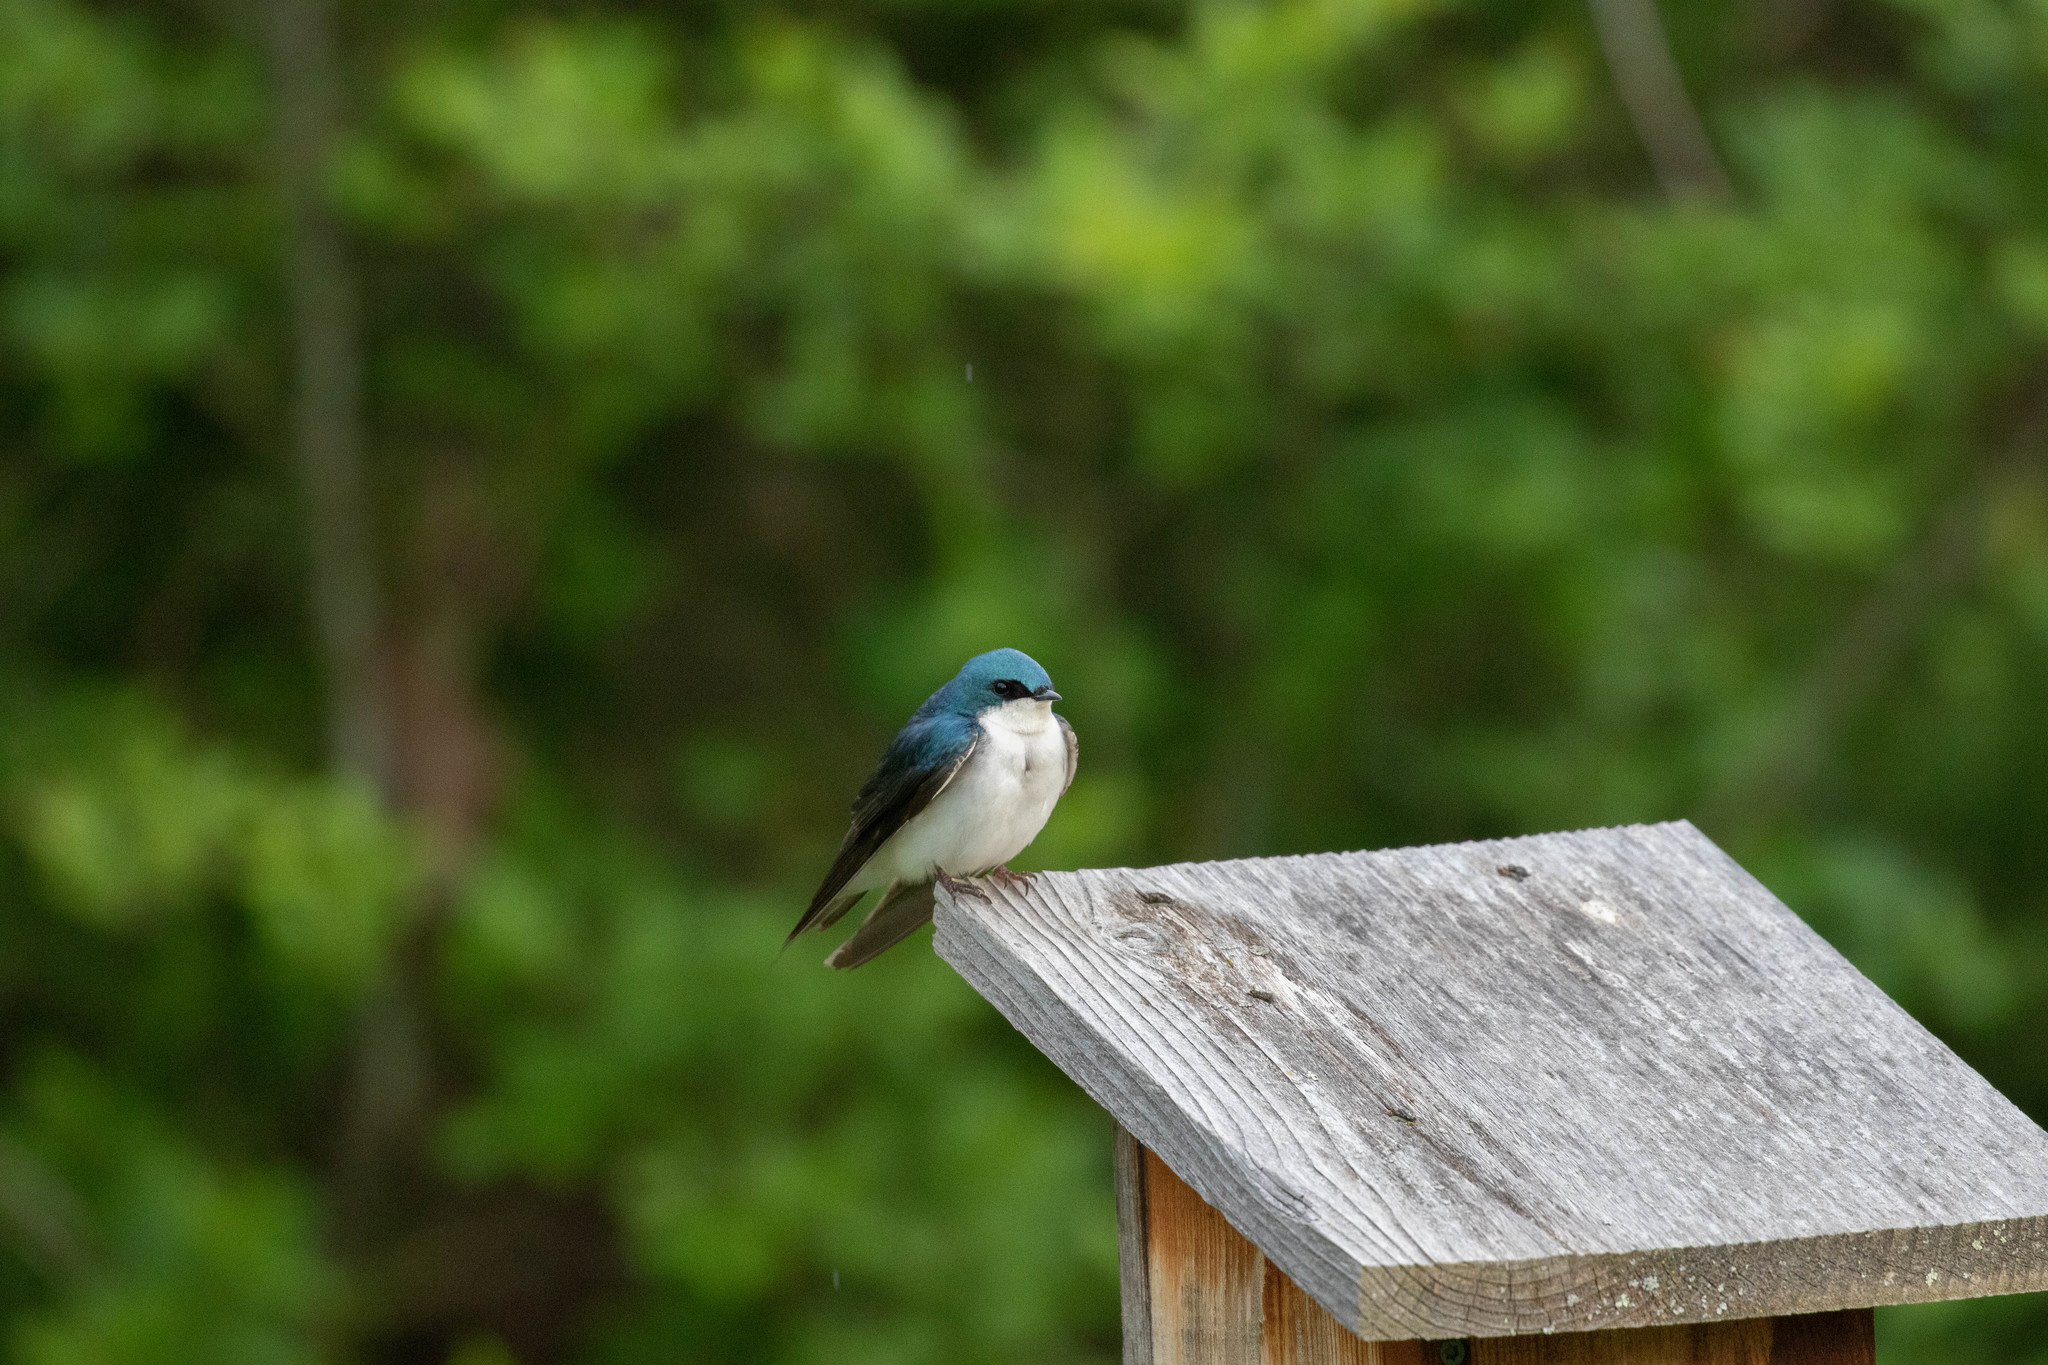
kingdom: Animalia
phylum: Chordata
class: Aves
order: Passeriformes
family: Hirundinidae
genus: Tachycineta
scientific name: Tachycineta bicolor
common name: Tree swallow
